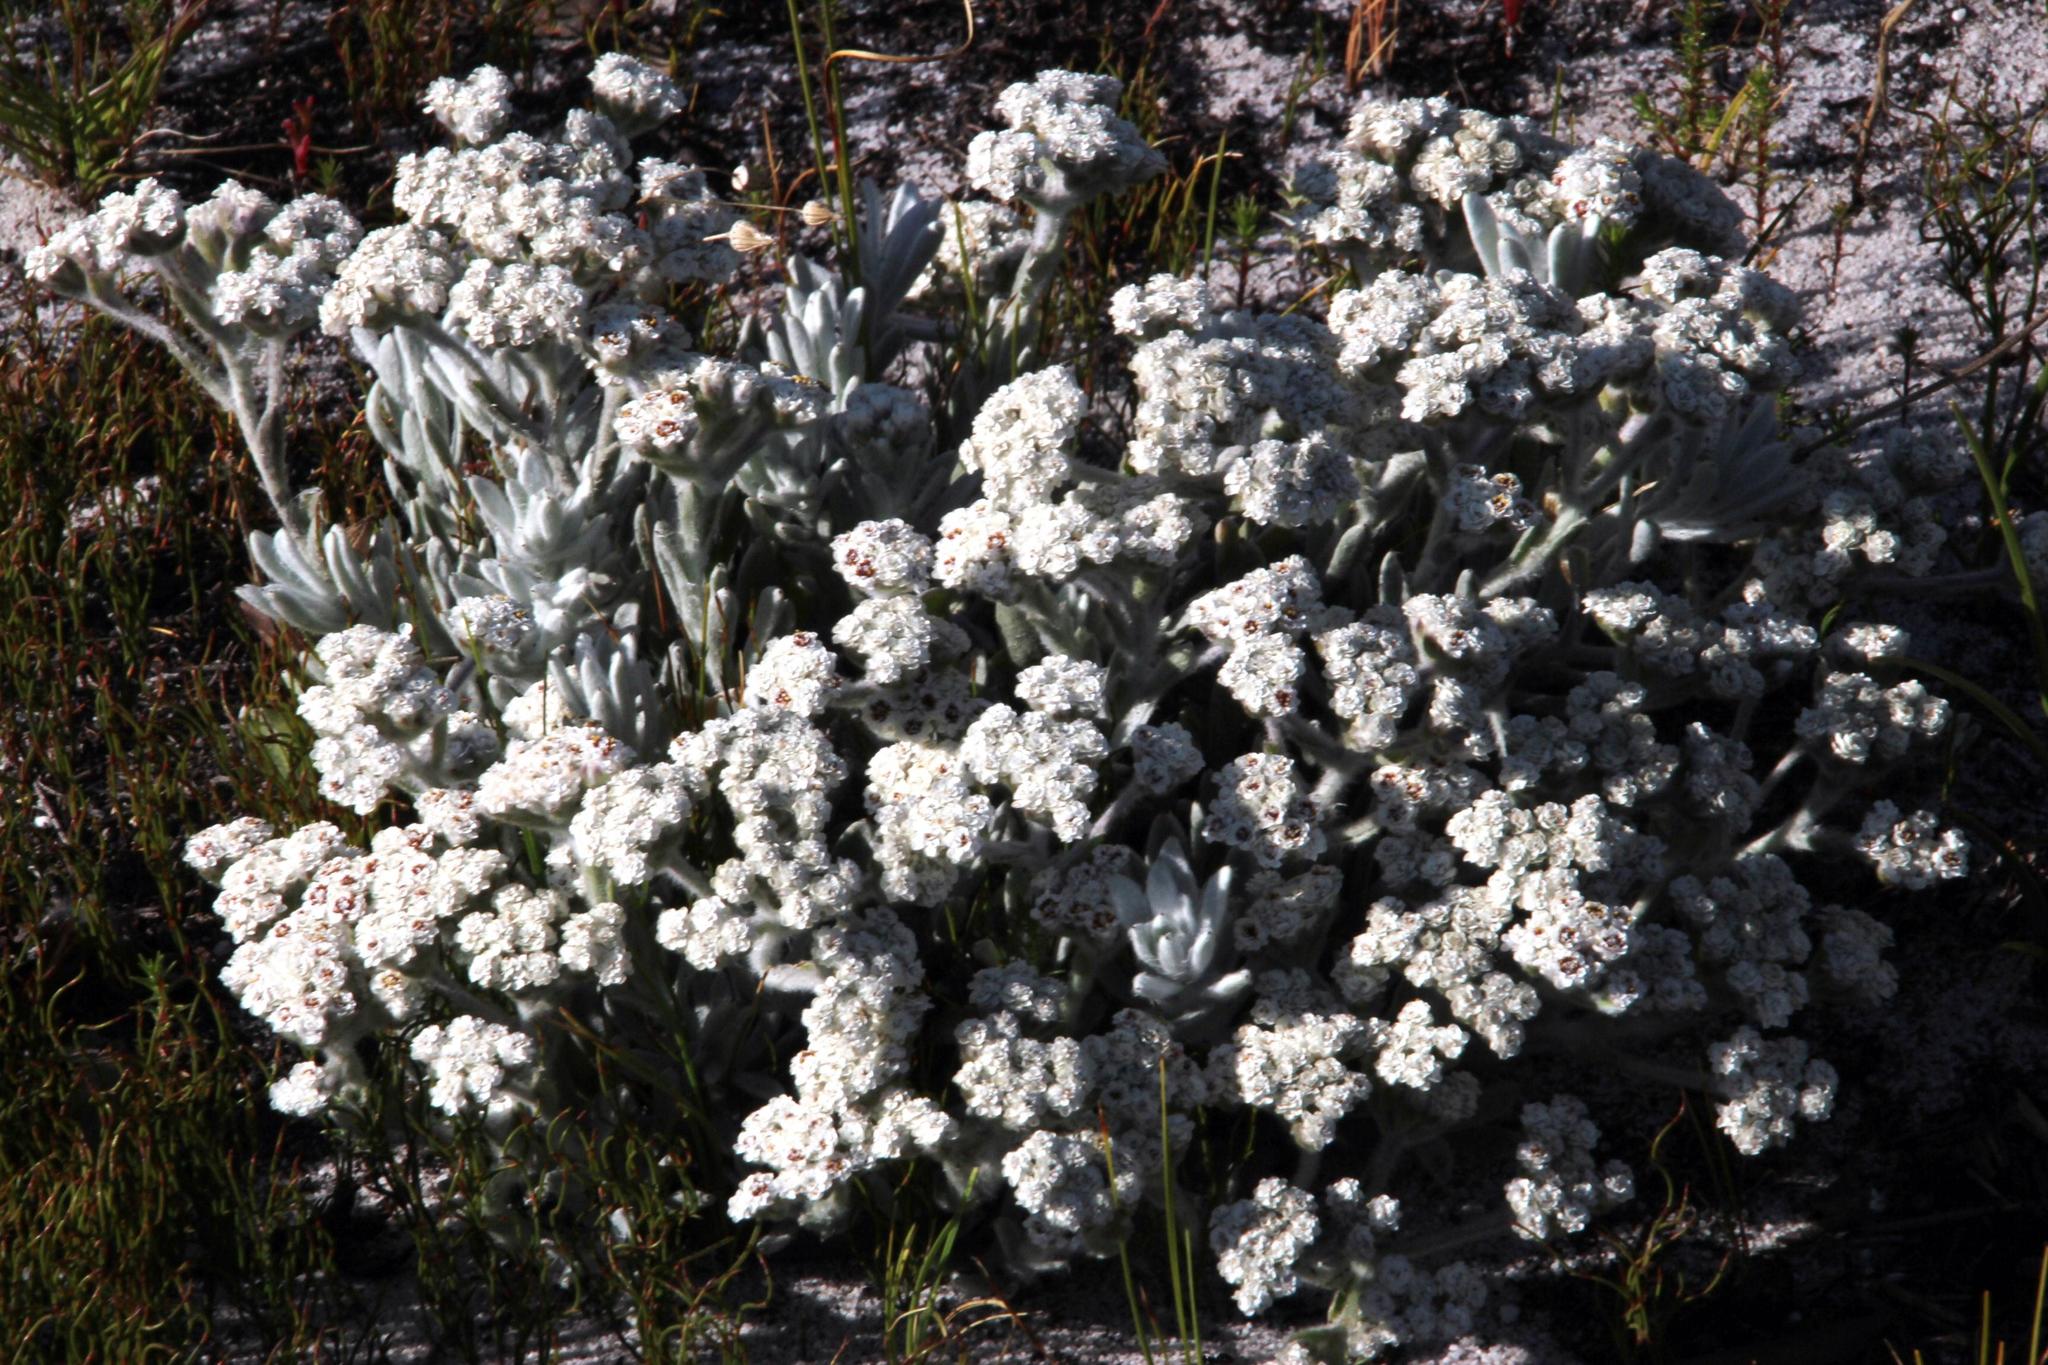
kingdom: Plantae
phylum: Tracheophyta
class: Magnoliopsida
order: Asterales
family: Asteraceae
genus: Petalacte
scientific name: Petalacte coronata
